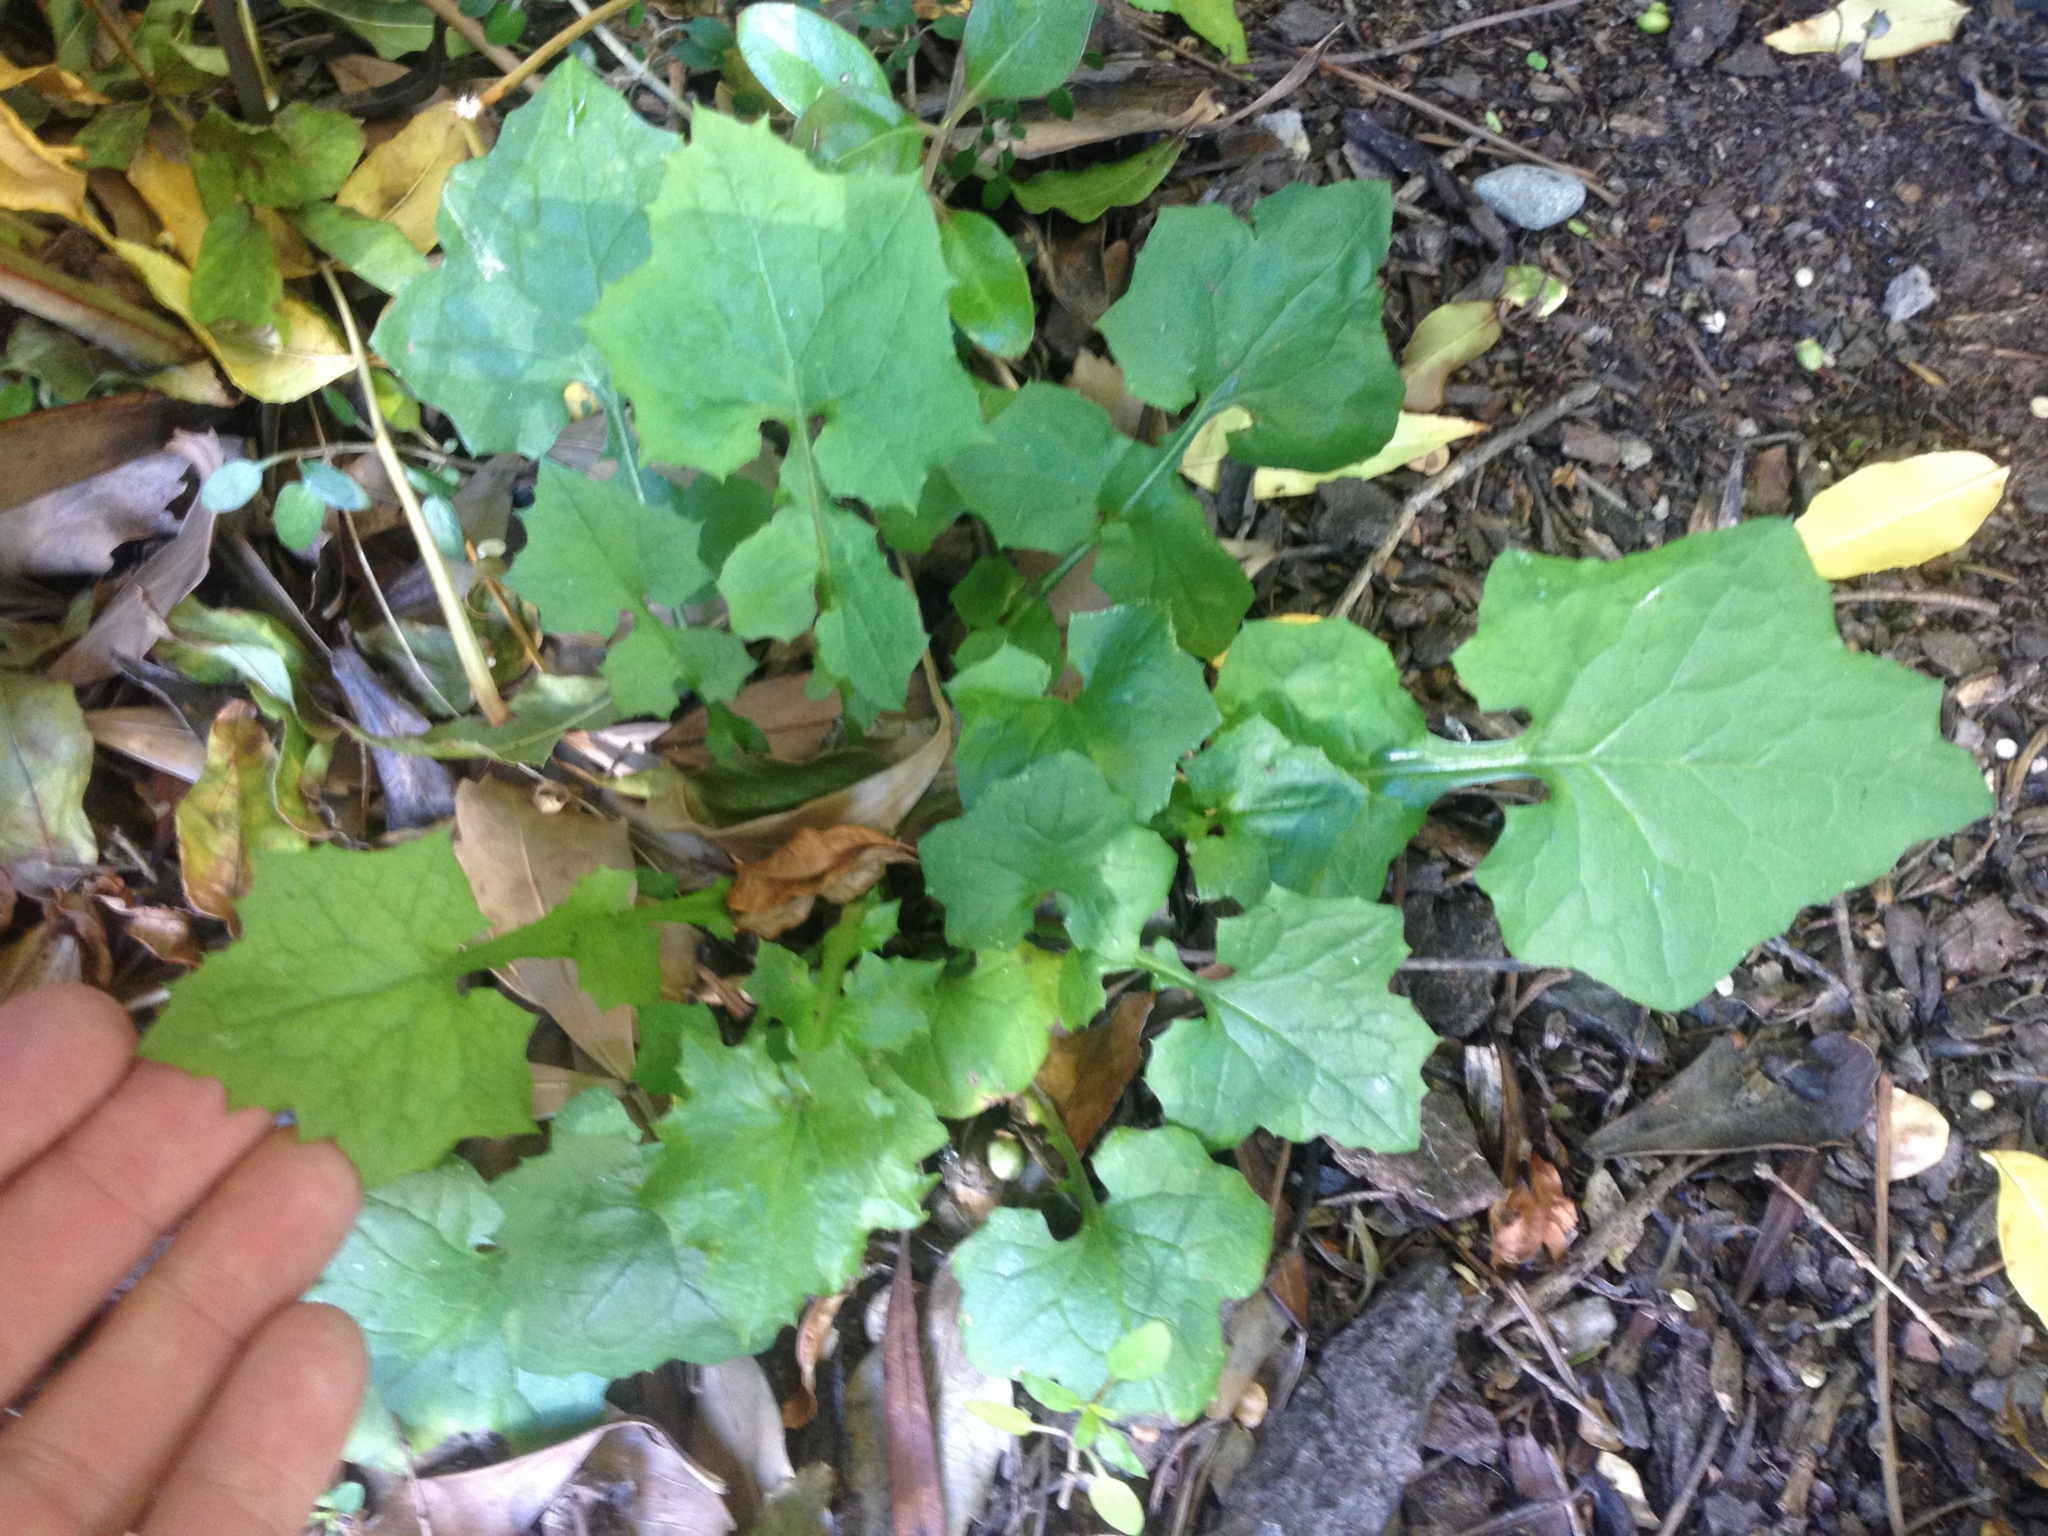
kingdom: Plantae
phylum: Tracheophyta
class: Magnoliopsida
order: Asterales
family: Asteraceae
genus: Mycelis
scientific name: Mycelis muralis
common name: Wall lettuce
